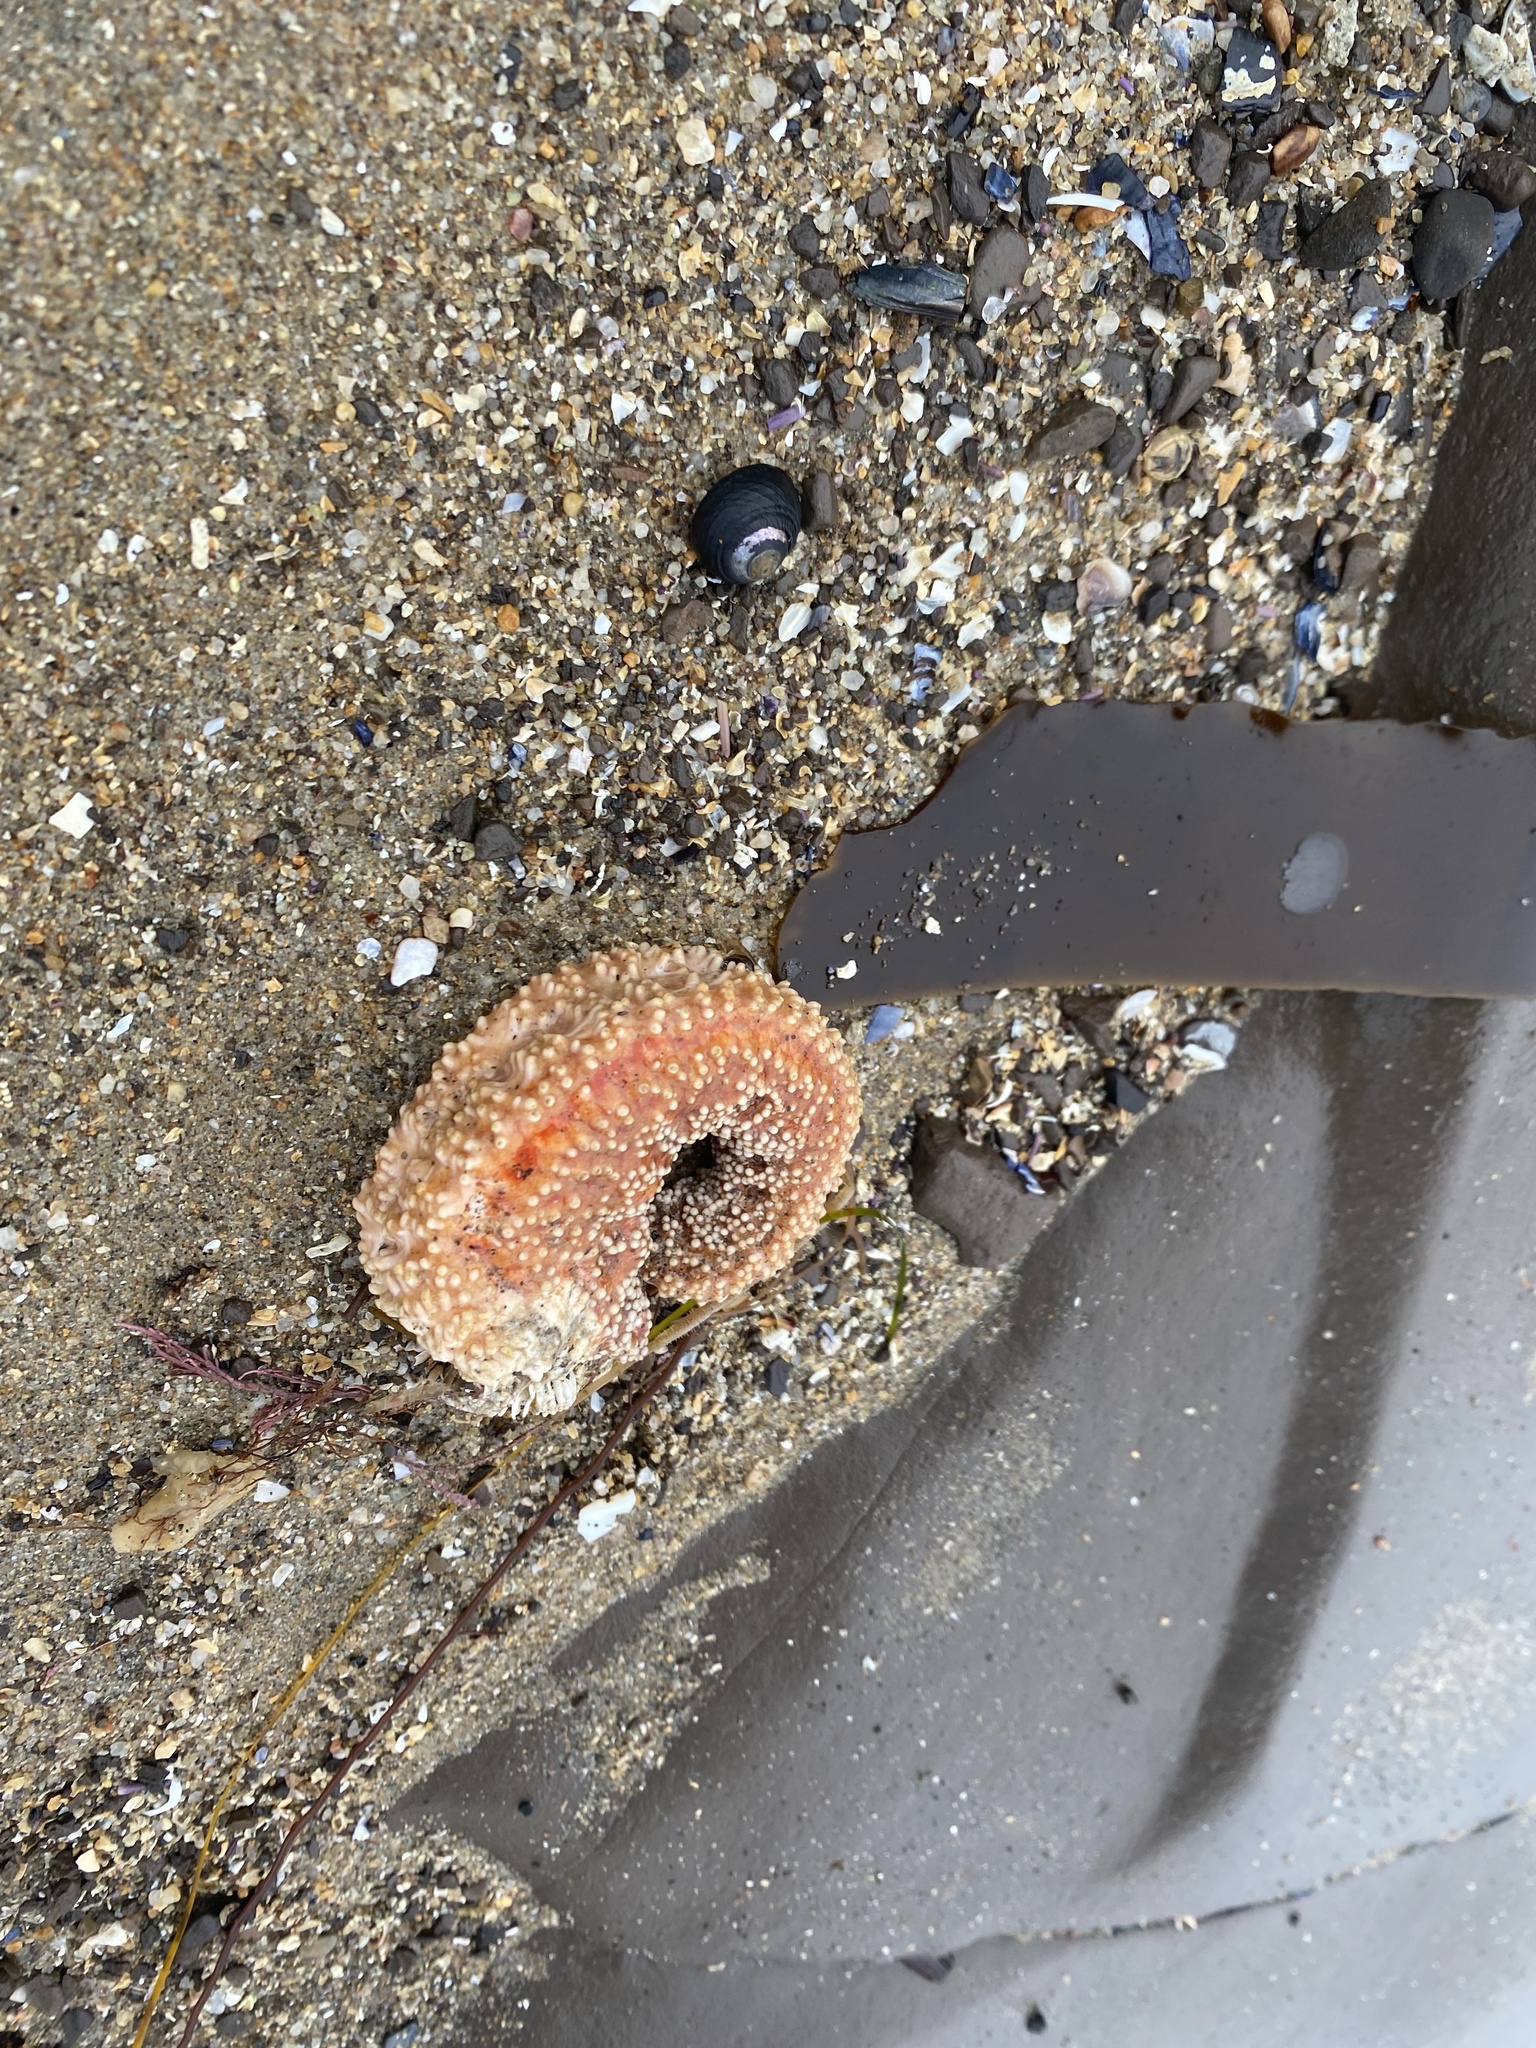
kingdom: Animalia
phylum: Echinodermata
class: Asteroidea
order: Forcipulatida
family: Asteriidae
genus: Pisaster
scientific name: Pisaster ochraceus
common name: Ochre stars
